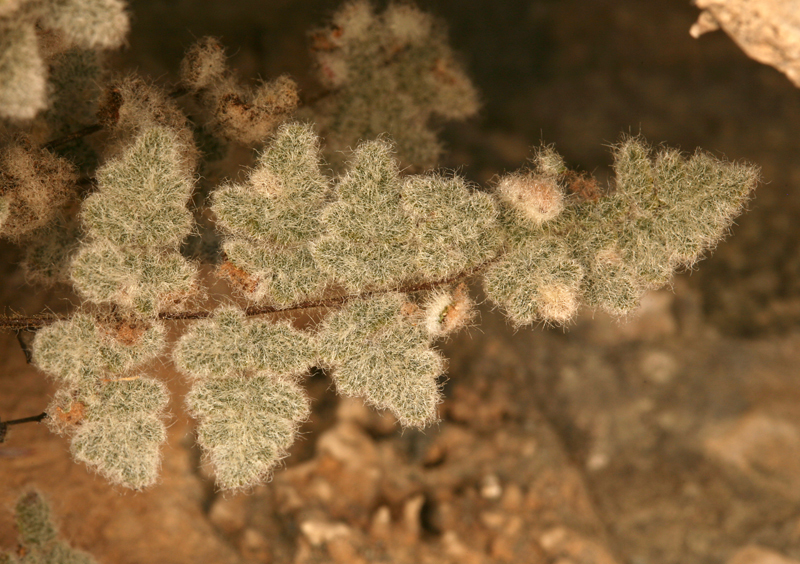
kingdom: Plantae
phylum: Tracheophyta
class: Polypodiopsida
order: Polypodiales
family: Pteridaceae
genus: Myriopteris
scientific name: Myriopteris parryi
